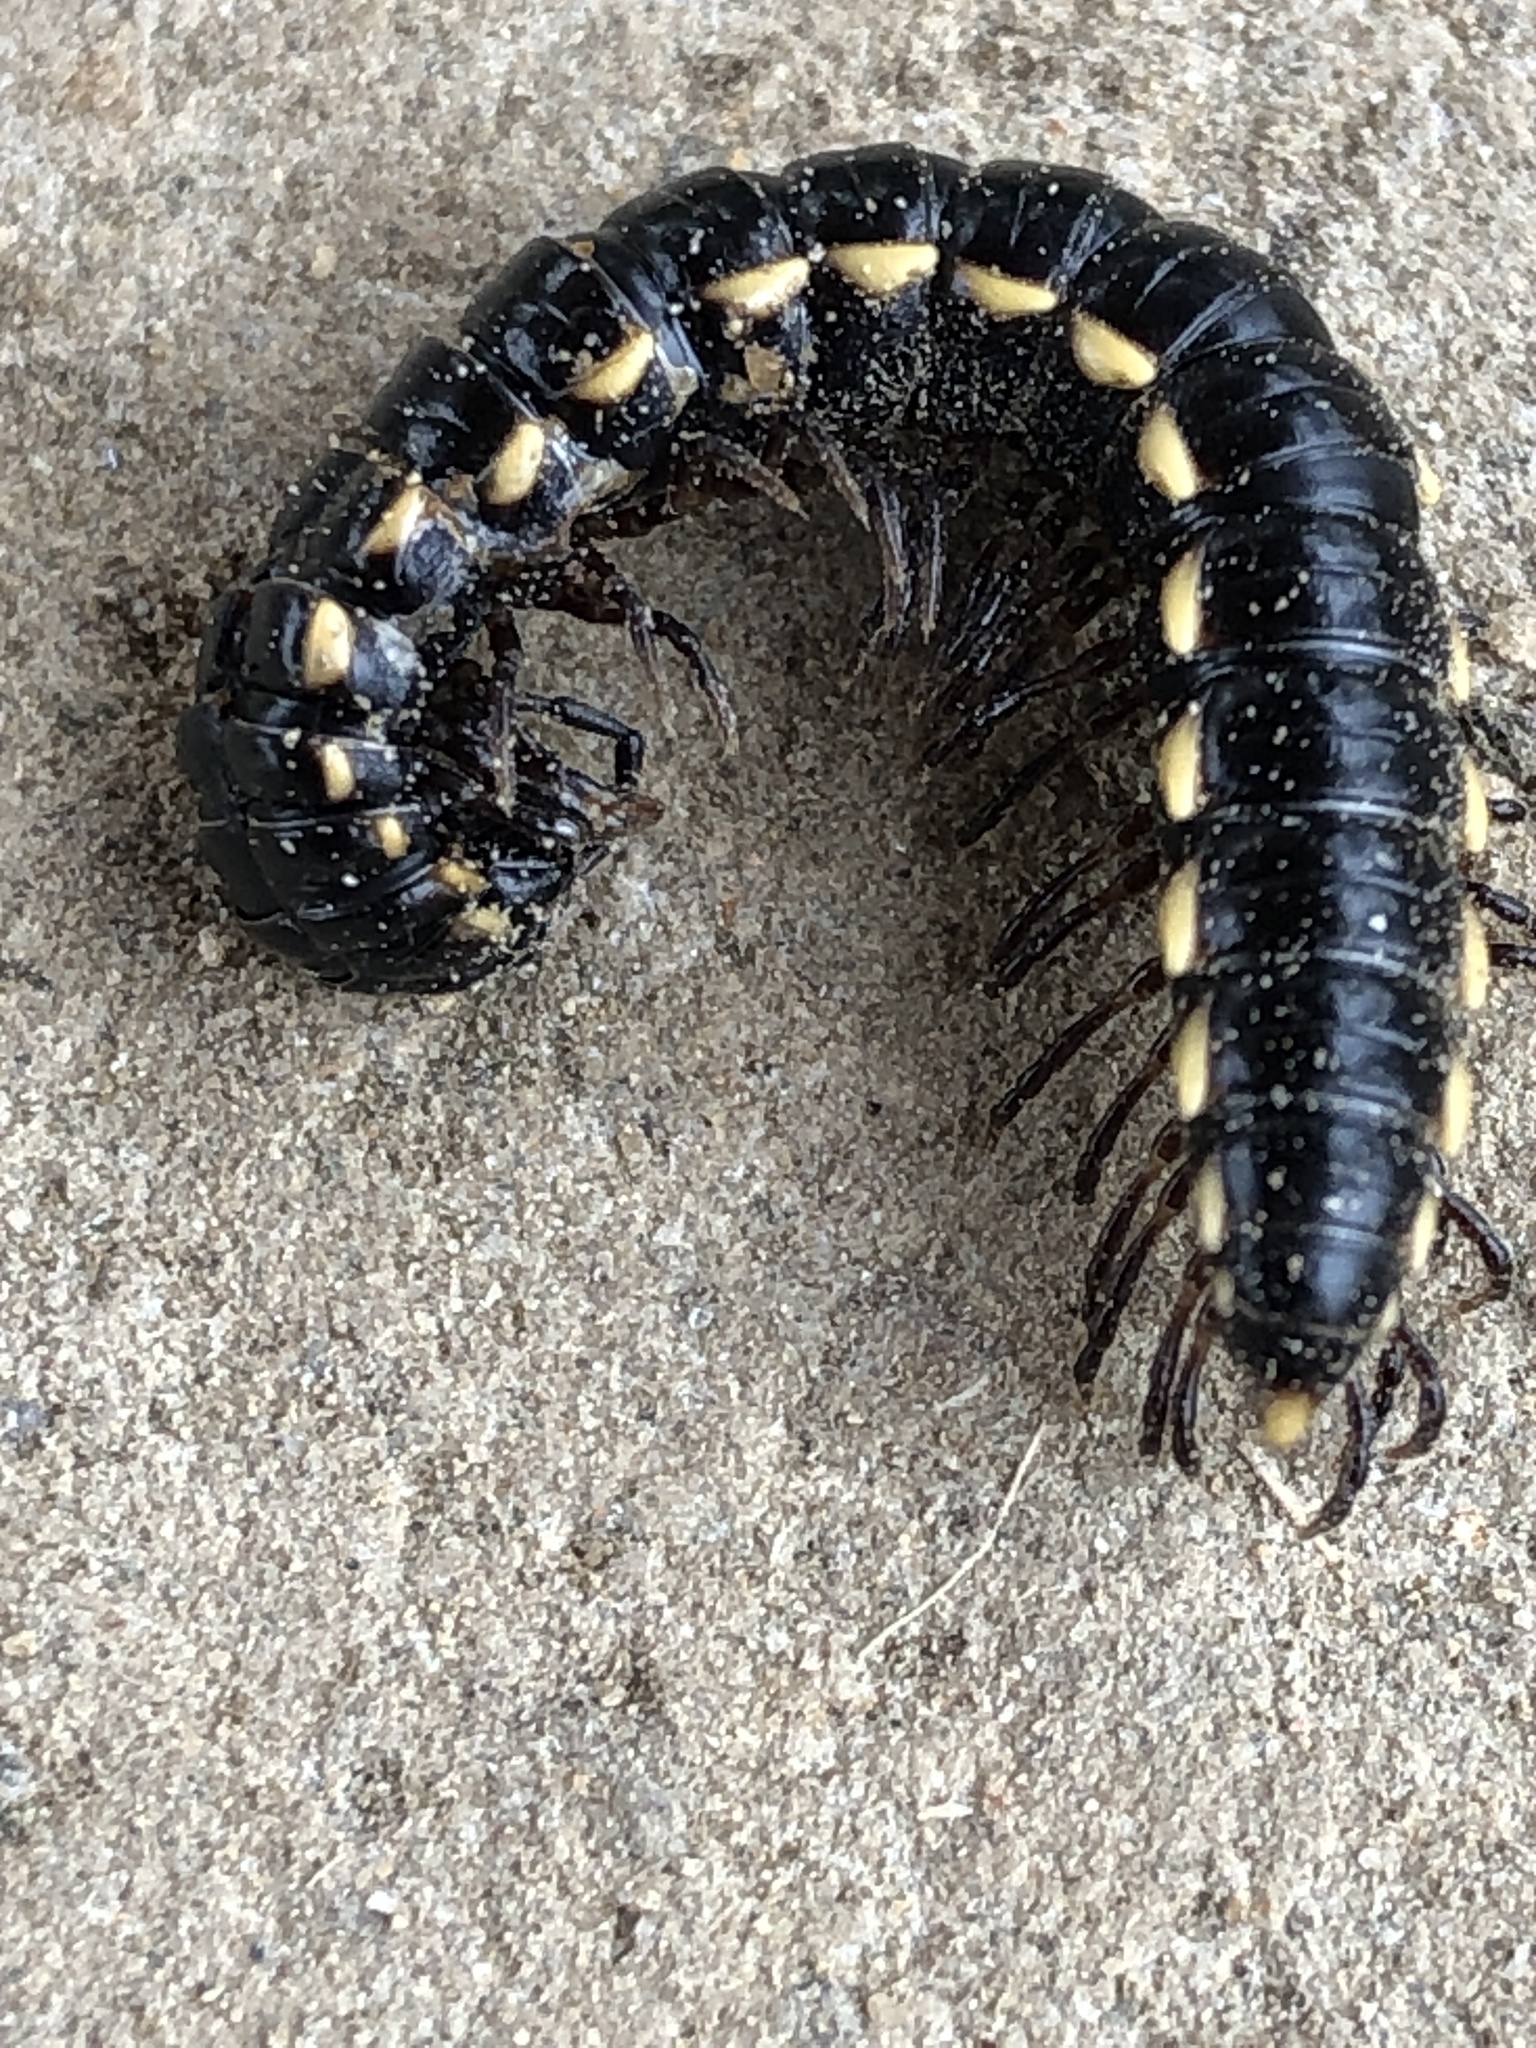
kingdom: Animalia
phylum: Arthropoda
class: Diplopoda
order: Polydesmida
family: Paradoxosomatidae
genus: Orthomorphella
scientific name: Orthomorphella pekuensis
